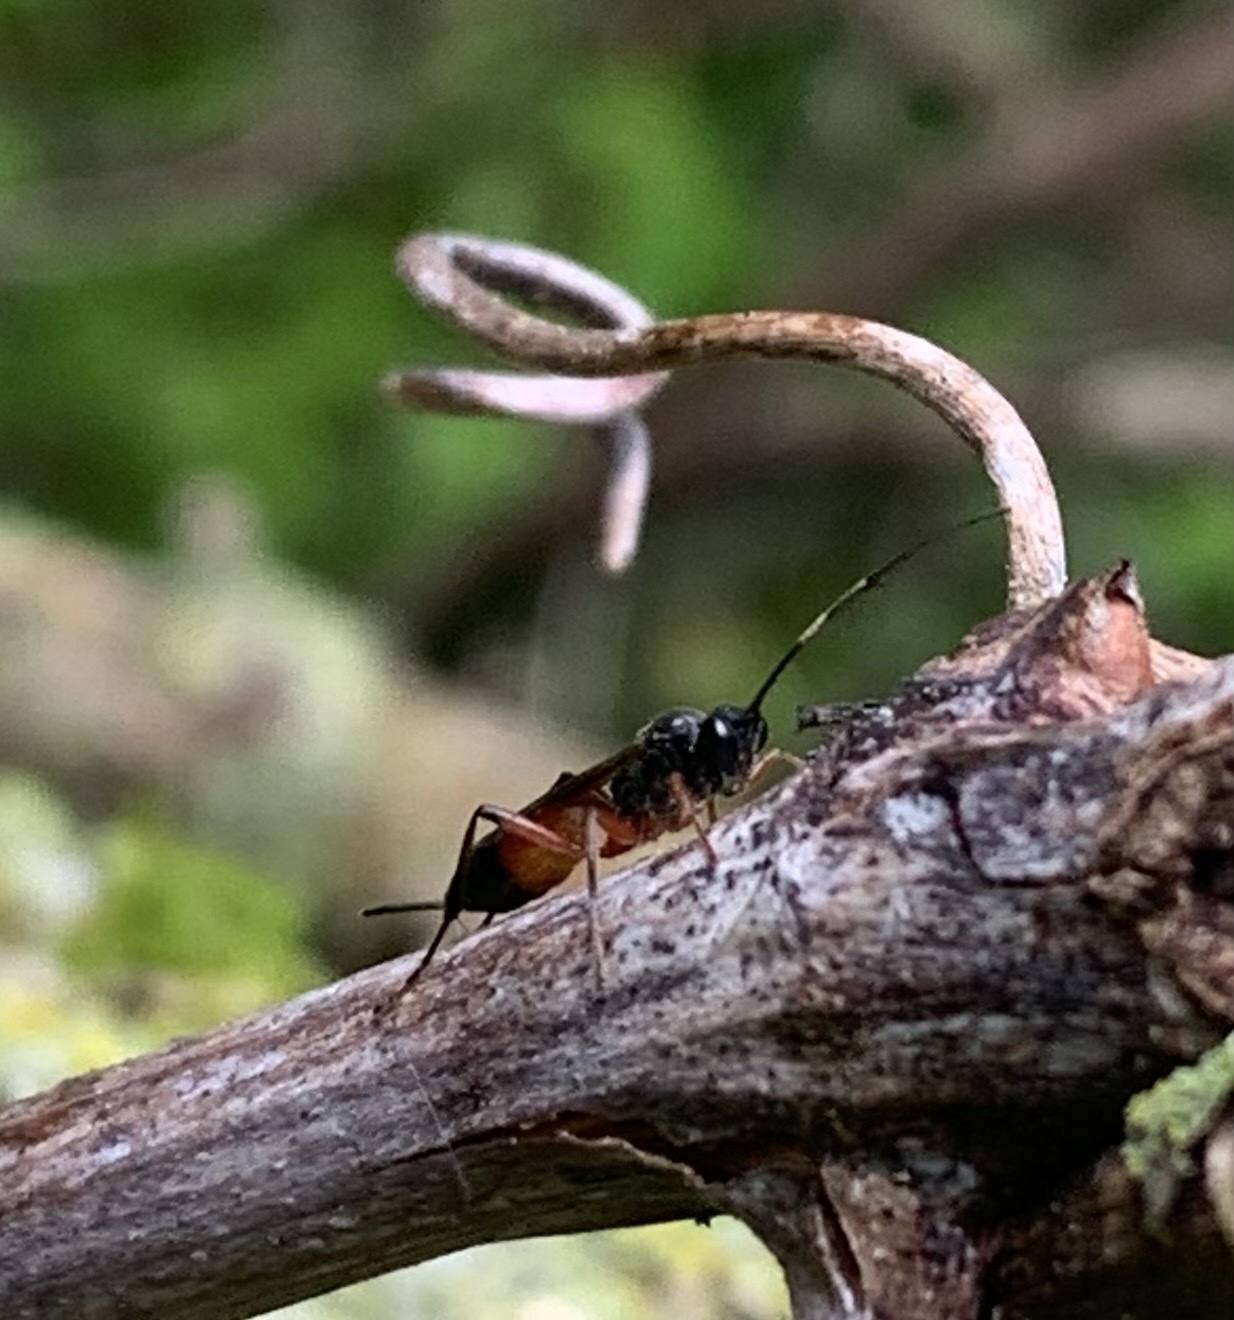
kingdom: Animalia
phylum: Arthropoda
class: Insecta
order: Hymenoptera
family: Ichneumonidae
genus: Aritranis
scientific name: Aritranis director
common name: Ichneumonid wasp
